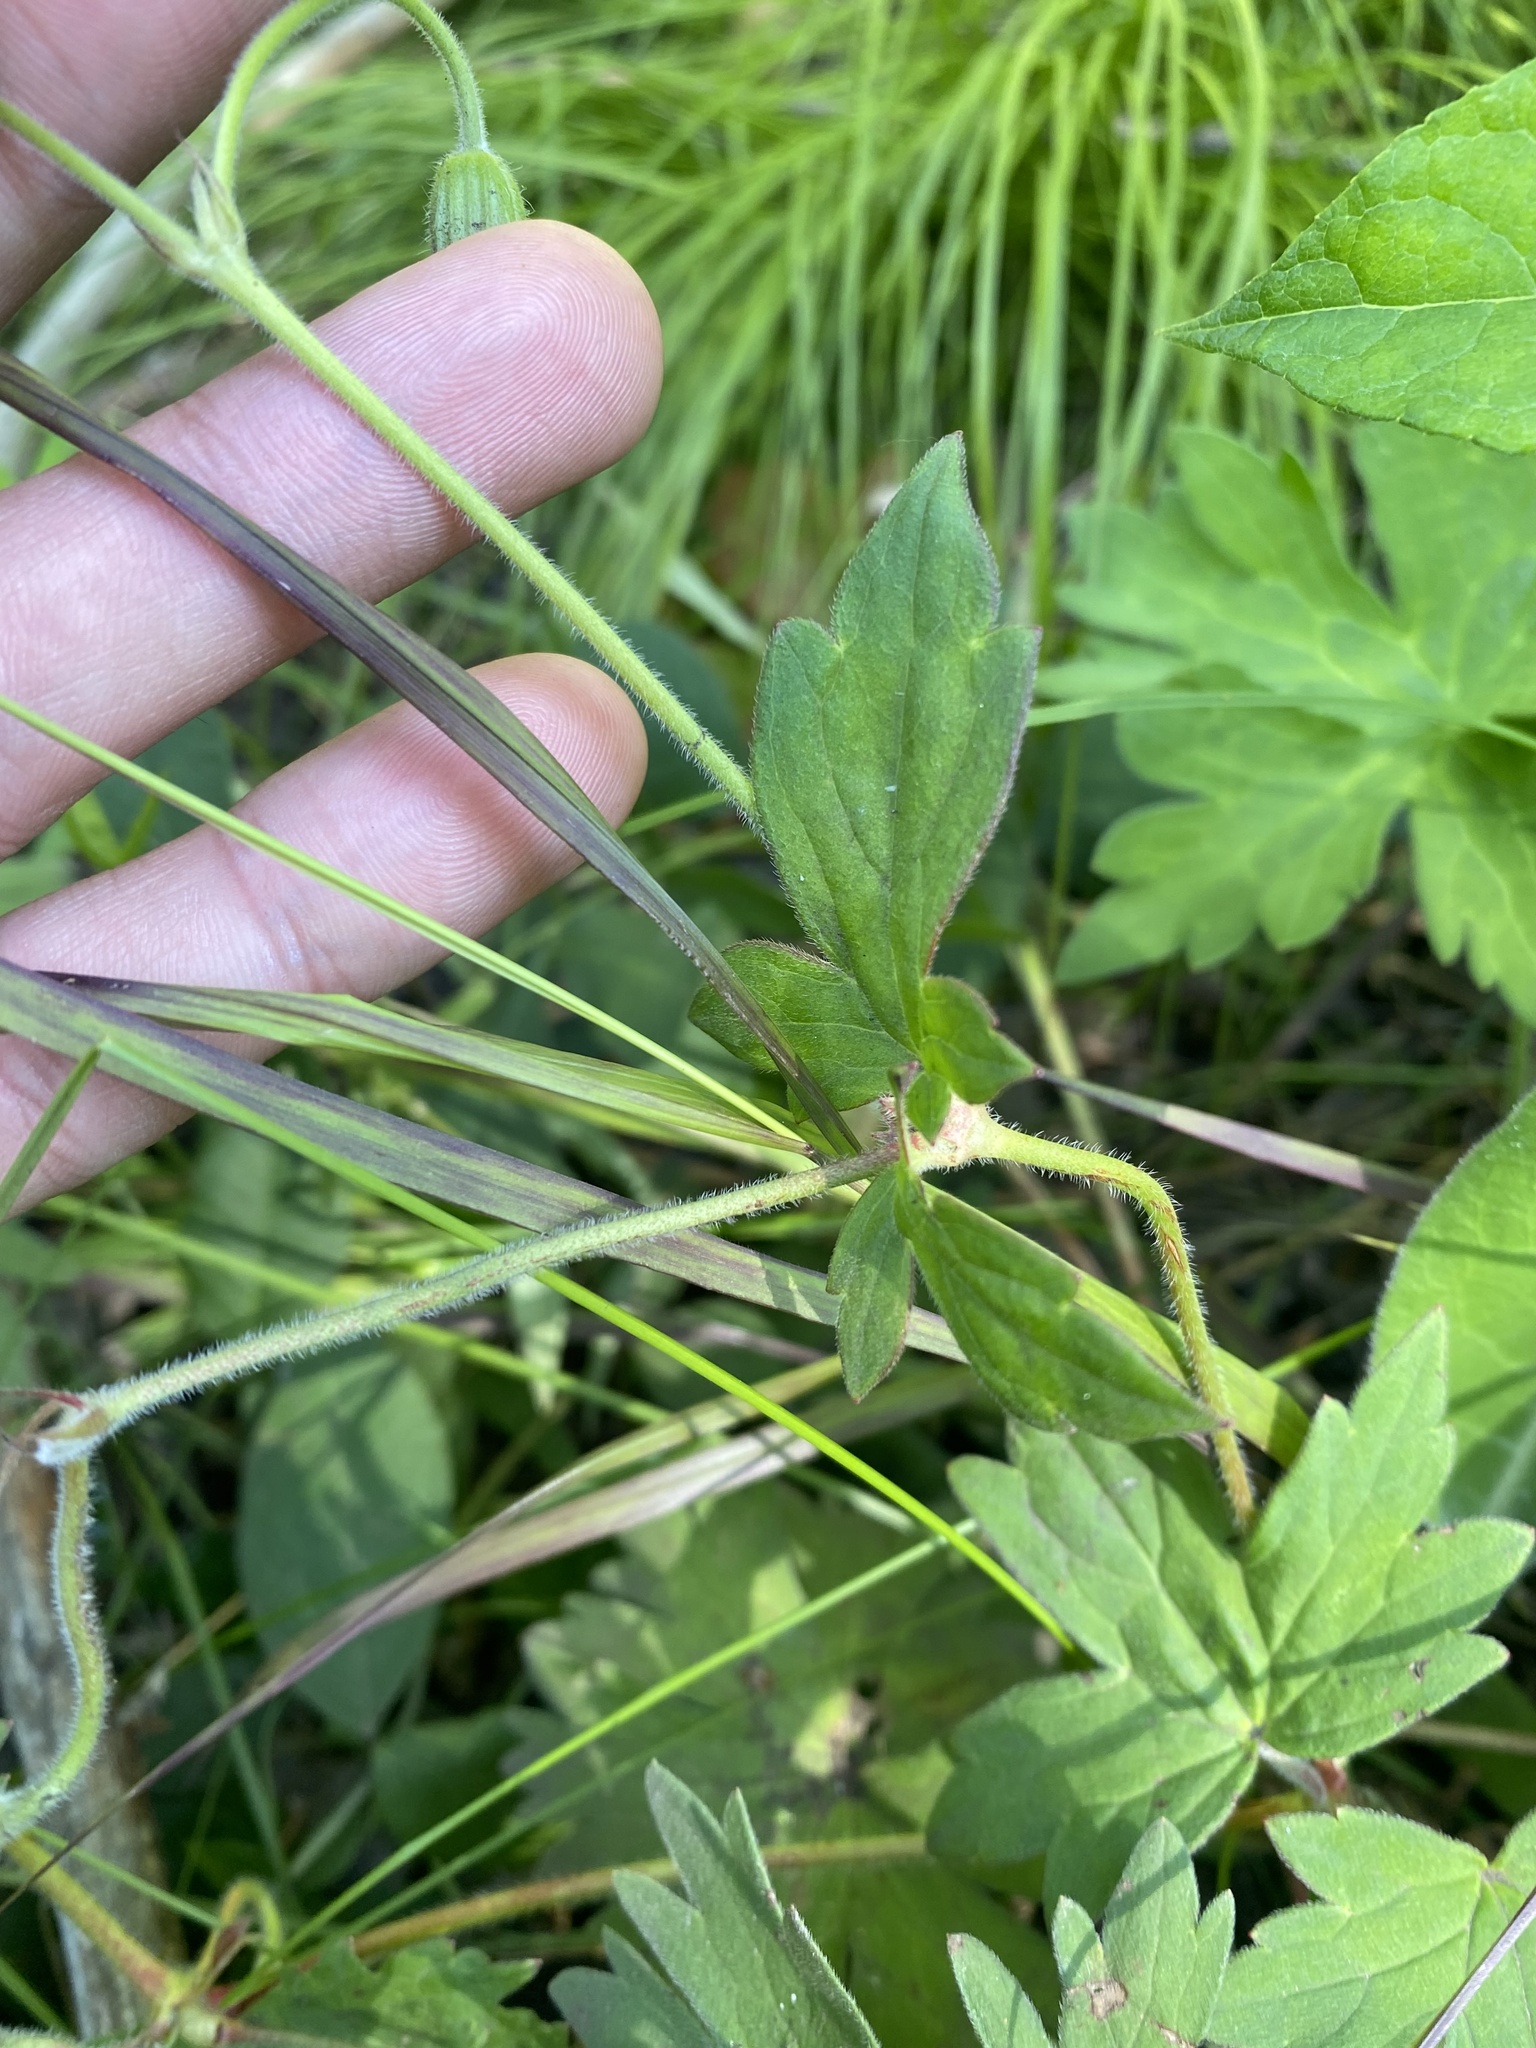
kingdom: Plantae
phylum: Tracheophyta
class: Magnoliopsida
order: Geraniales
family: Geraniaceae
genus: Geranium
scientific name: Geranium wlassovianum
